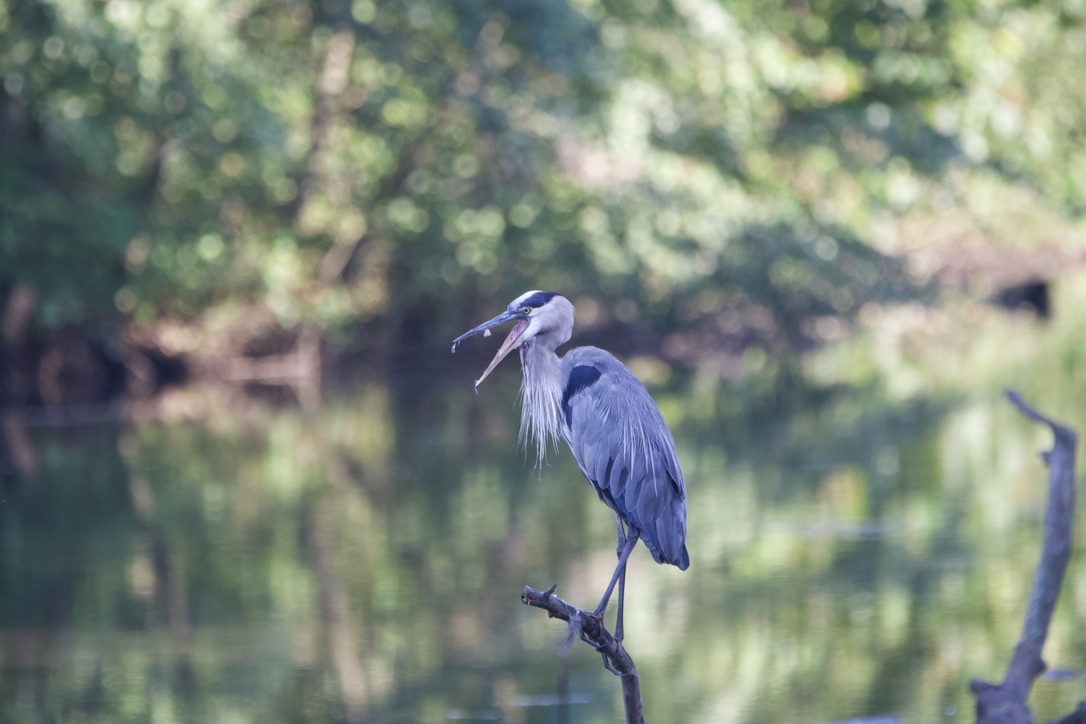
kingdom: Animalia
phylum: Chordata
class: Aves
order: Pelecaniformes
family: Ardeidae
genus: Ardea
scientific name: Ardea herodias
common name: Great blue heron
